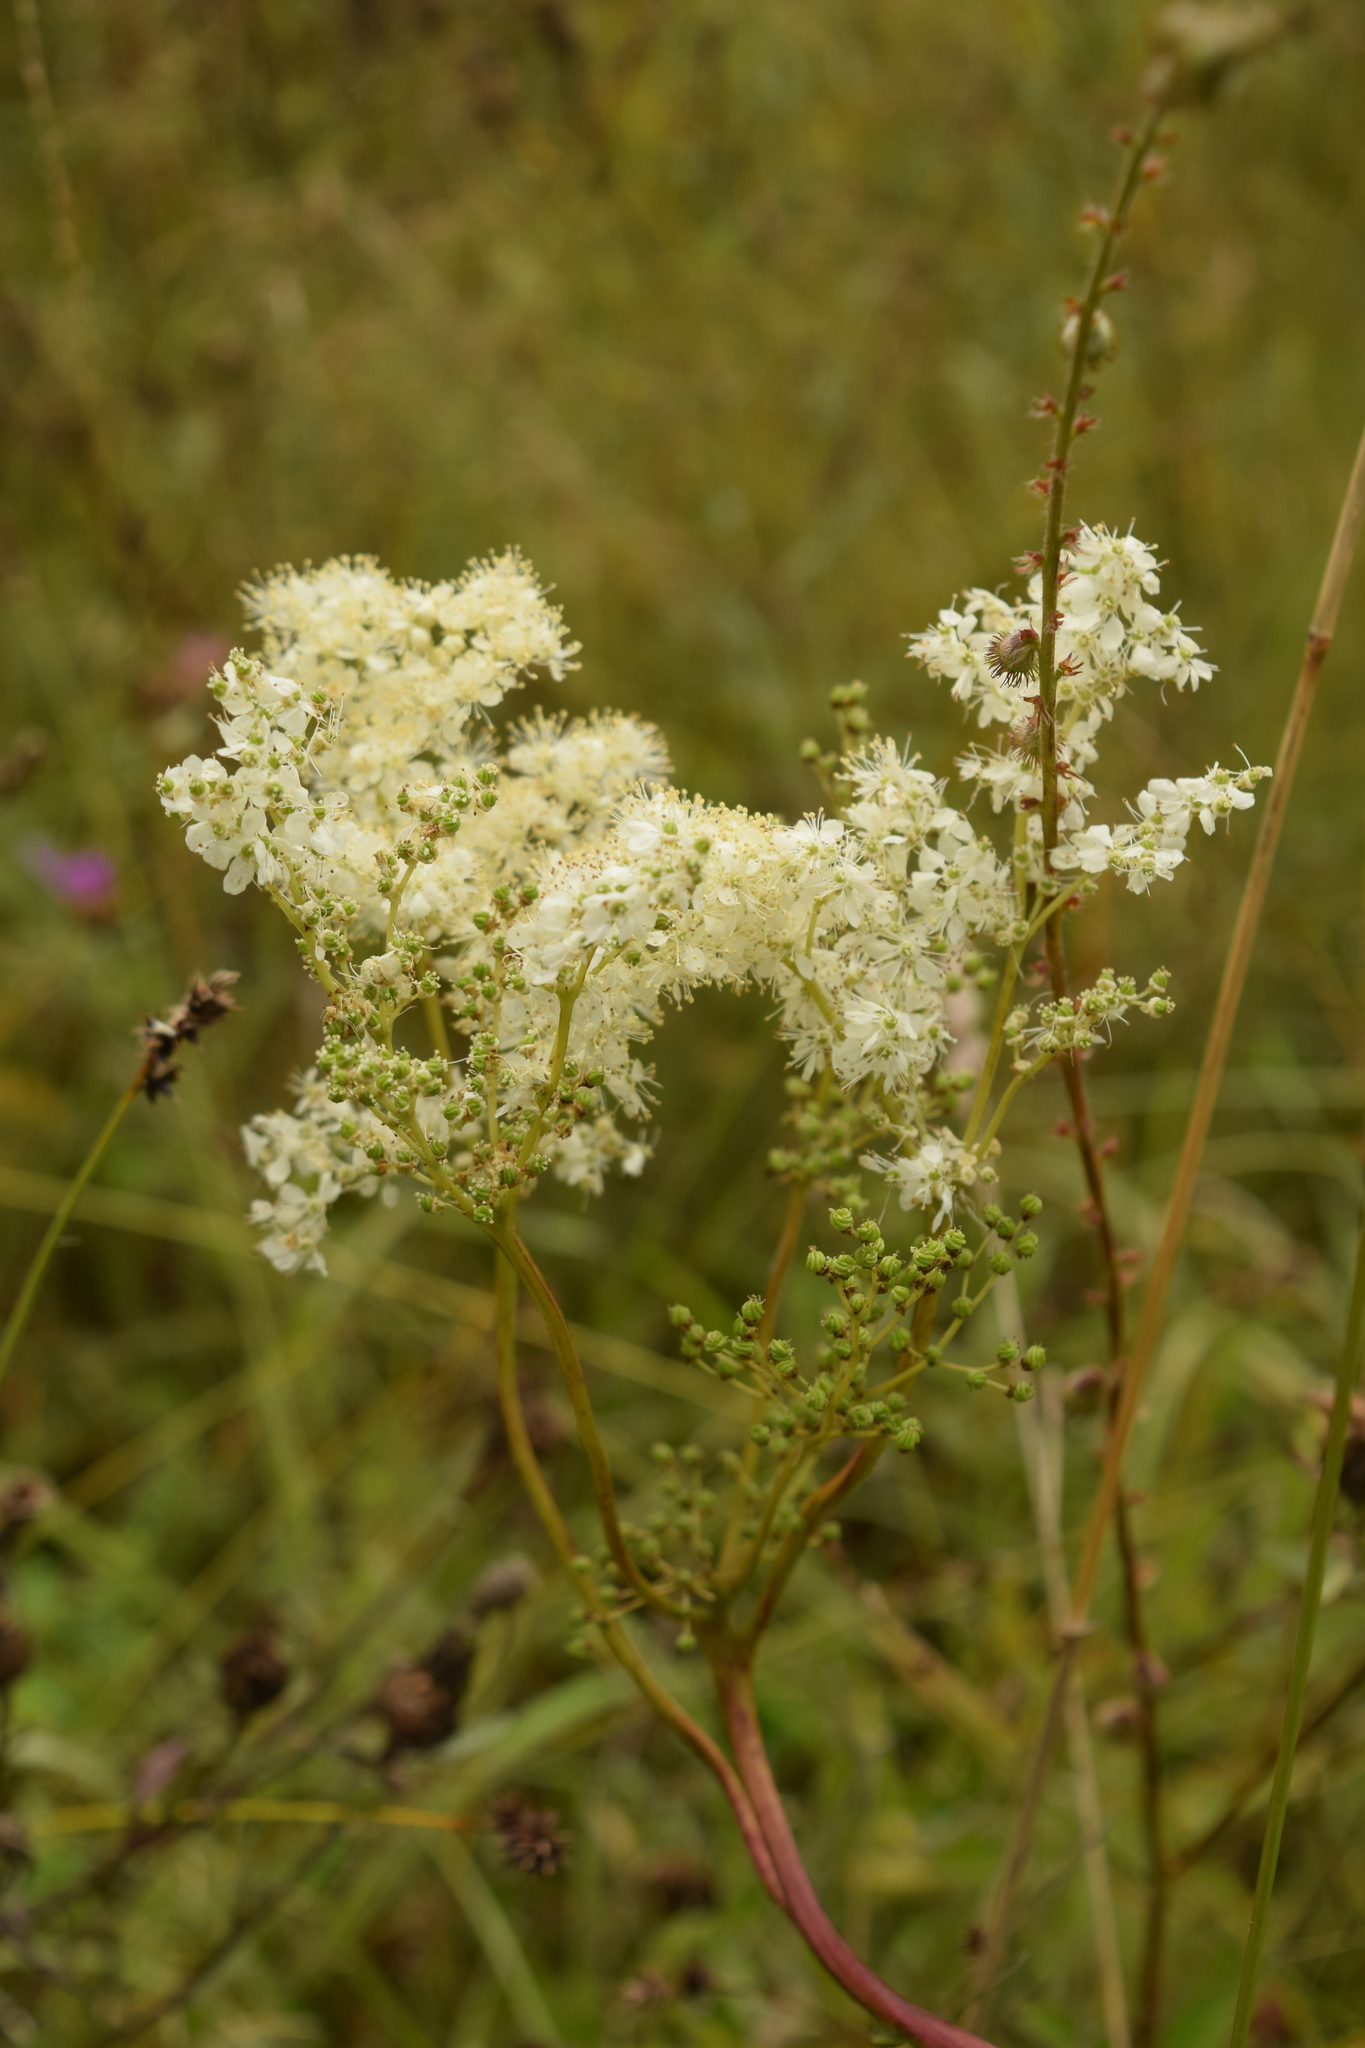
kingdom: Plantae
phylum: Tracheophyta
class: Magnoliopsida
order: Rosales
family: Rosaceae
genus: Filipendula
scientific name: Filipendula ulmaria
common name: Meadowsweet
